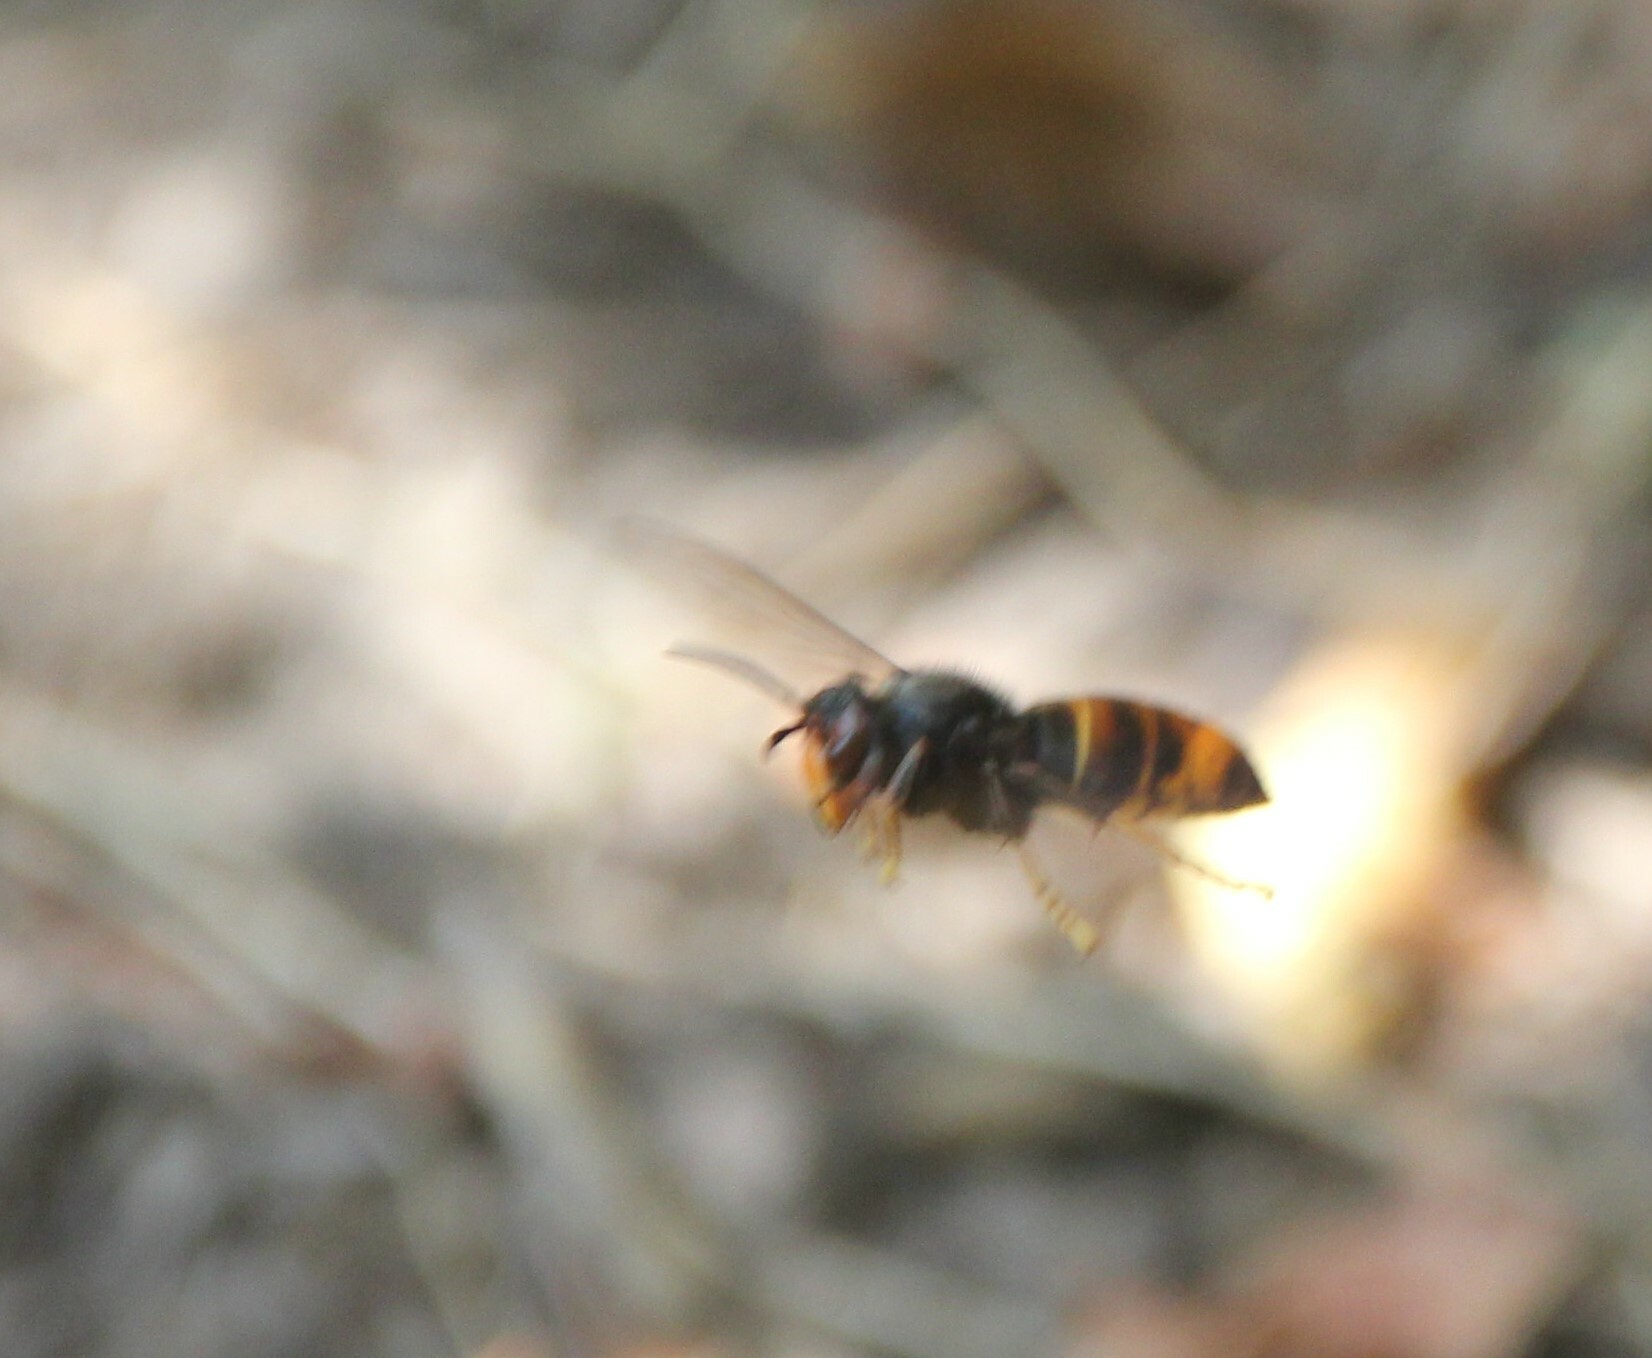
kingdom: Animalia
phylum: Arthropoda
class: Insecta
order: Hymenoptera
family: Vespidae
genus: Vespa
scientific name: Vespa velutina
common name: Asian hornet
